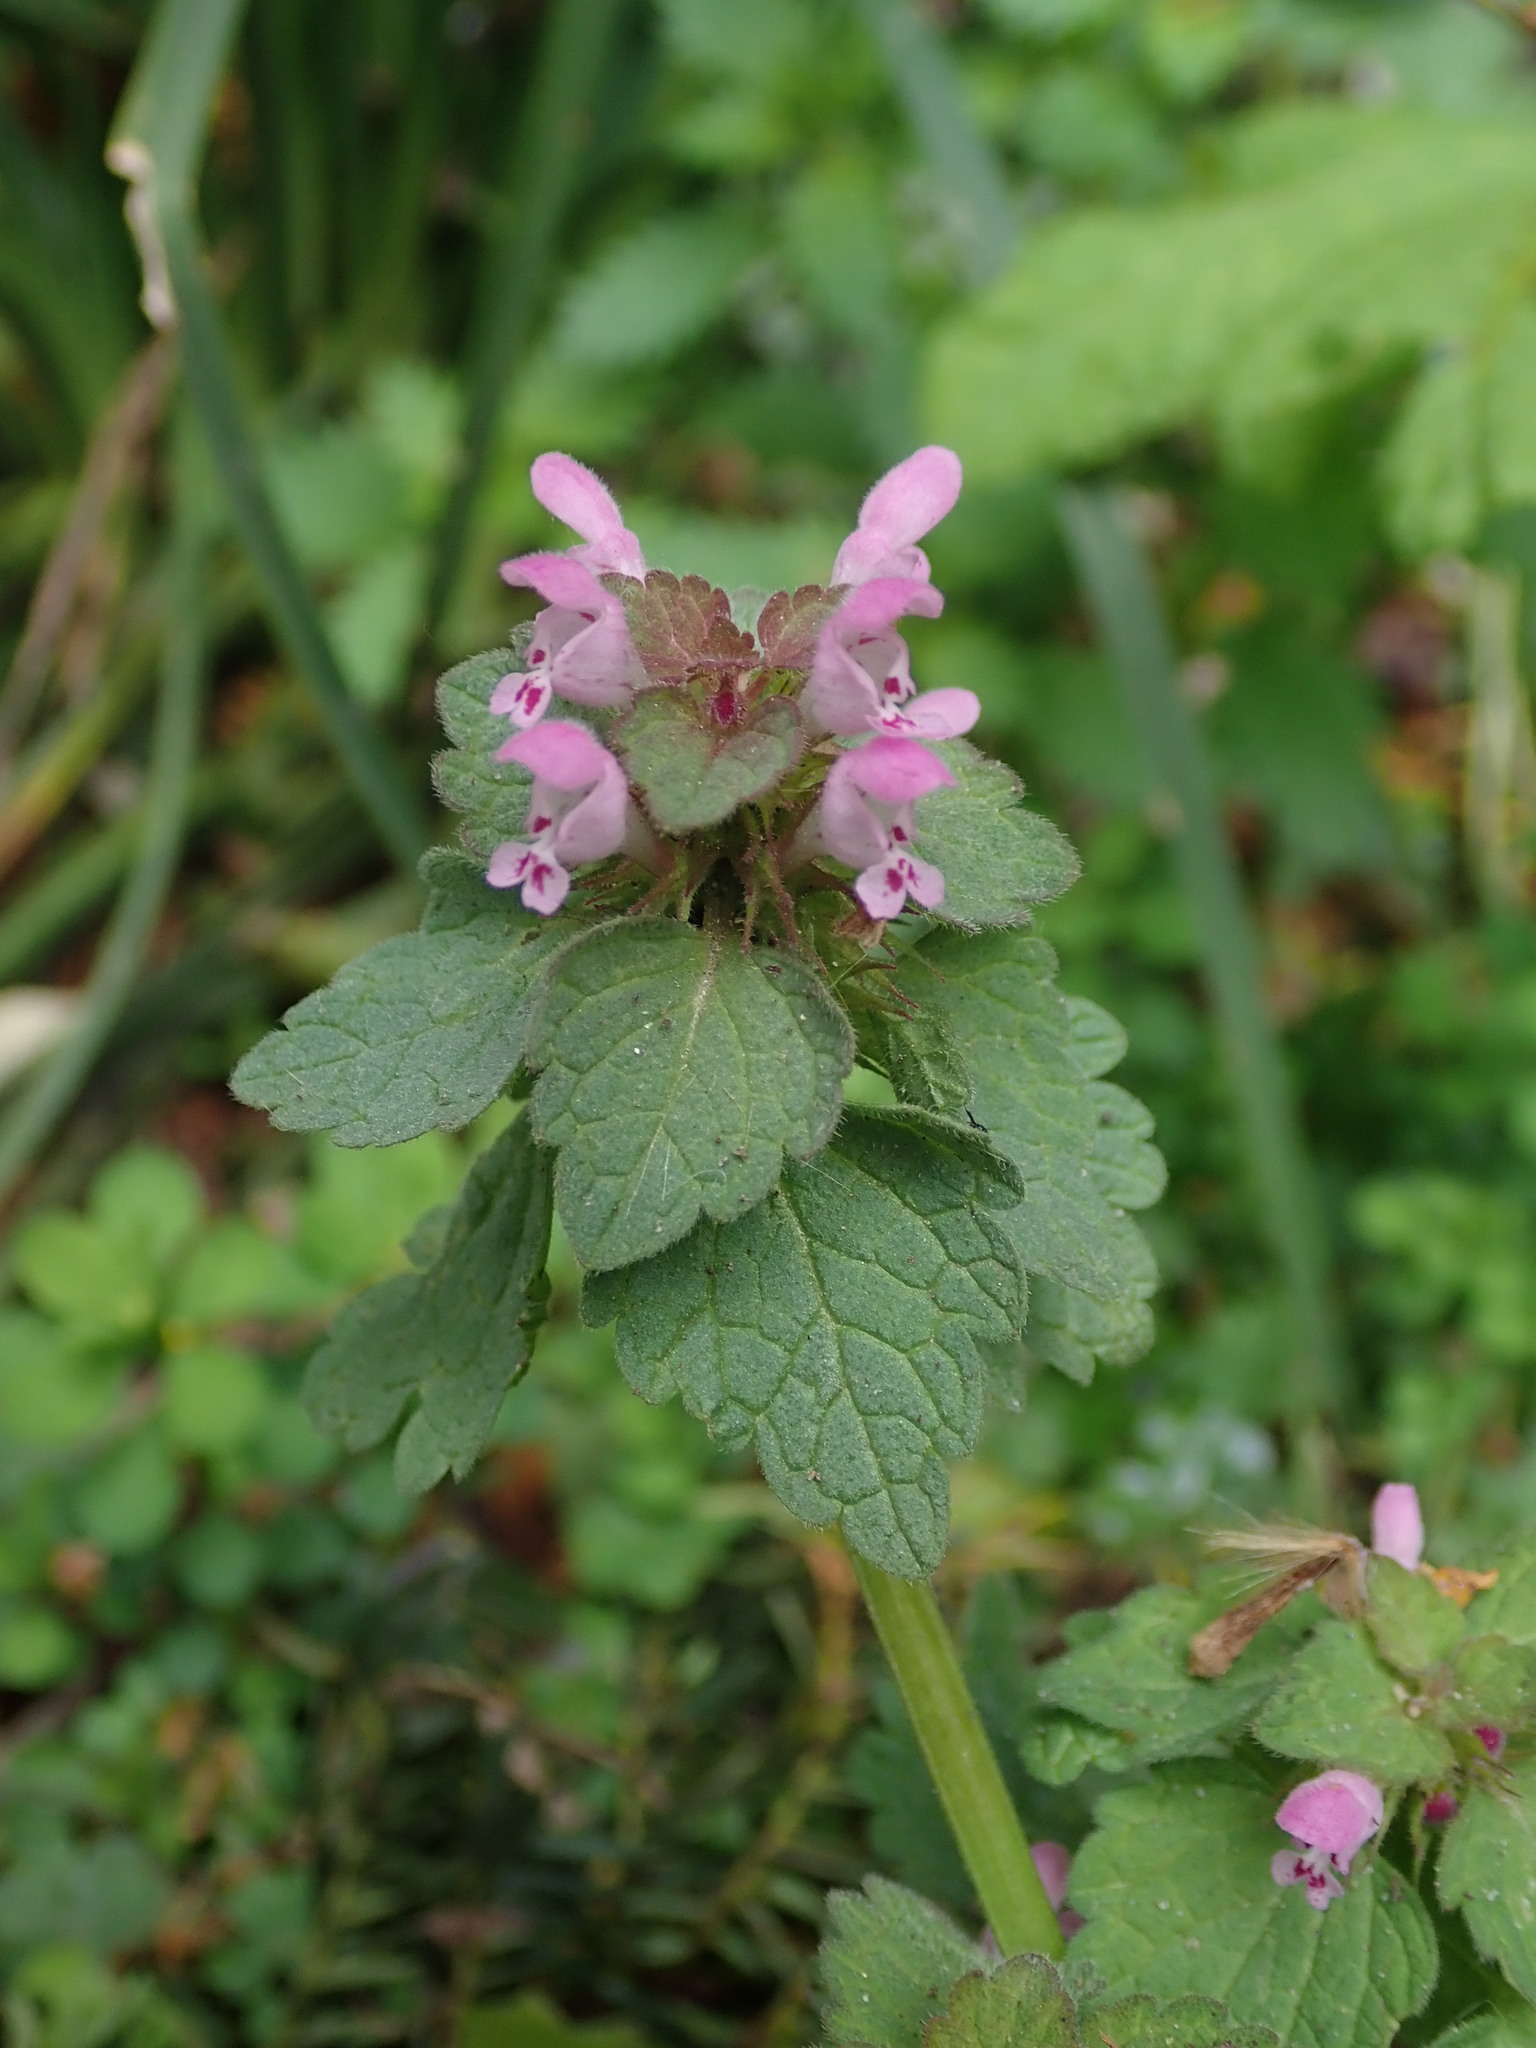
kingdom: Plantae
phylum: Tracheophyta
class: Magnoliopsida
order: Lamiales
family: Lamiaceae
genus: Lamium
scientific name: Lamium purpureum
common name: Red dead-nettle
